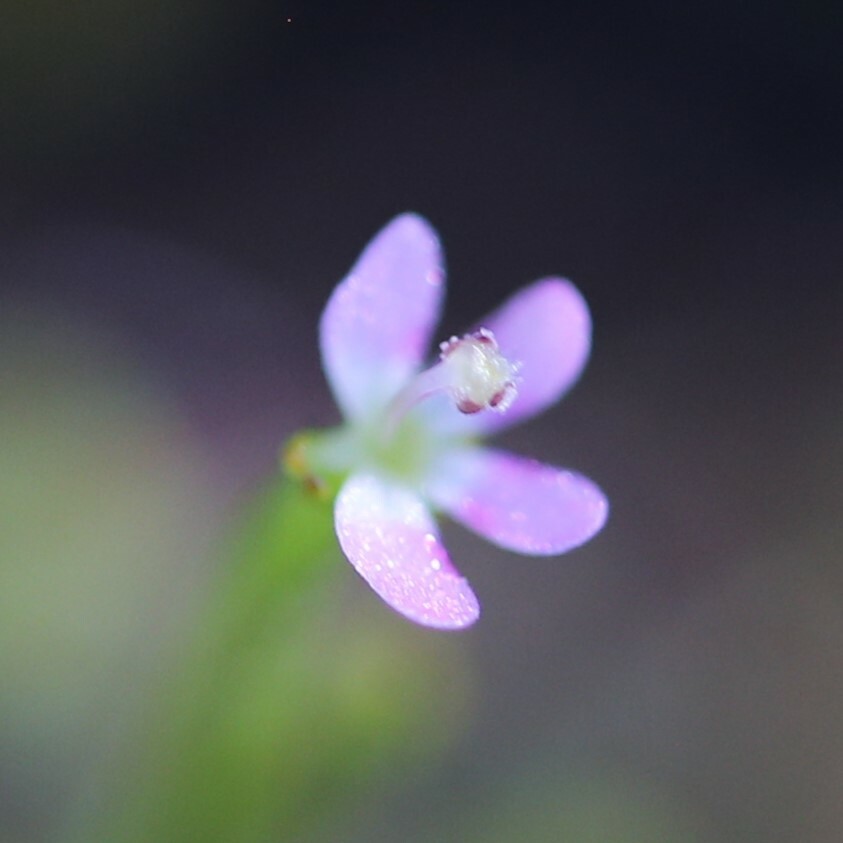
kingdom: Plantae
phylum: Tracheophyta
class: Magnoliopsida
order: Asterales
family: Stylidiaceae
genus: Stylidium
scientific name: Stylidium despectum
